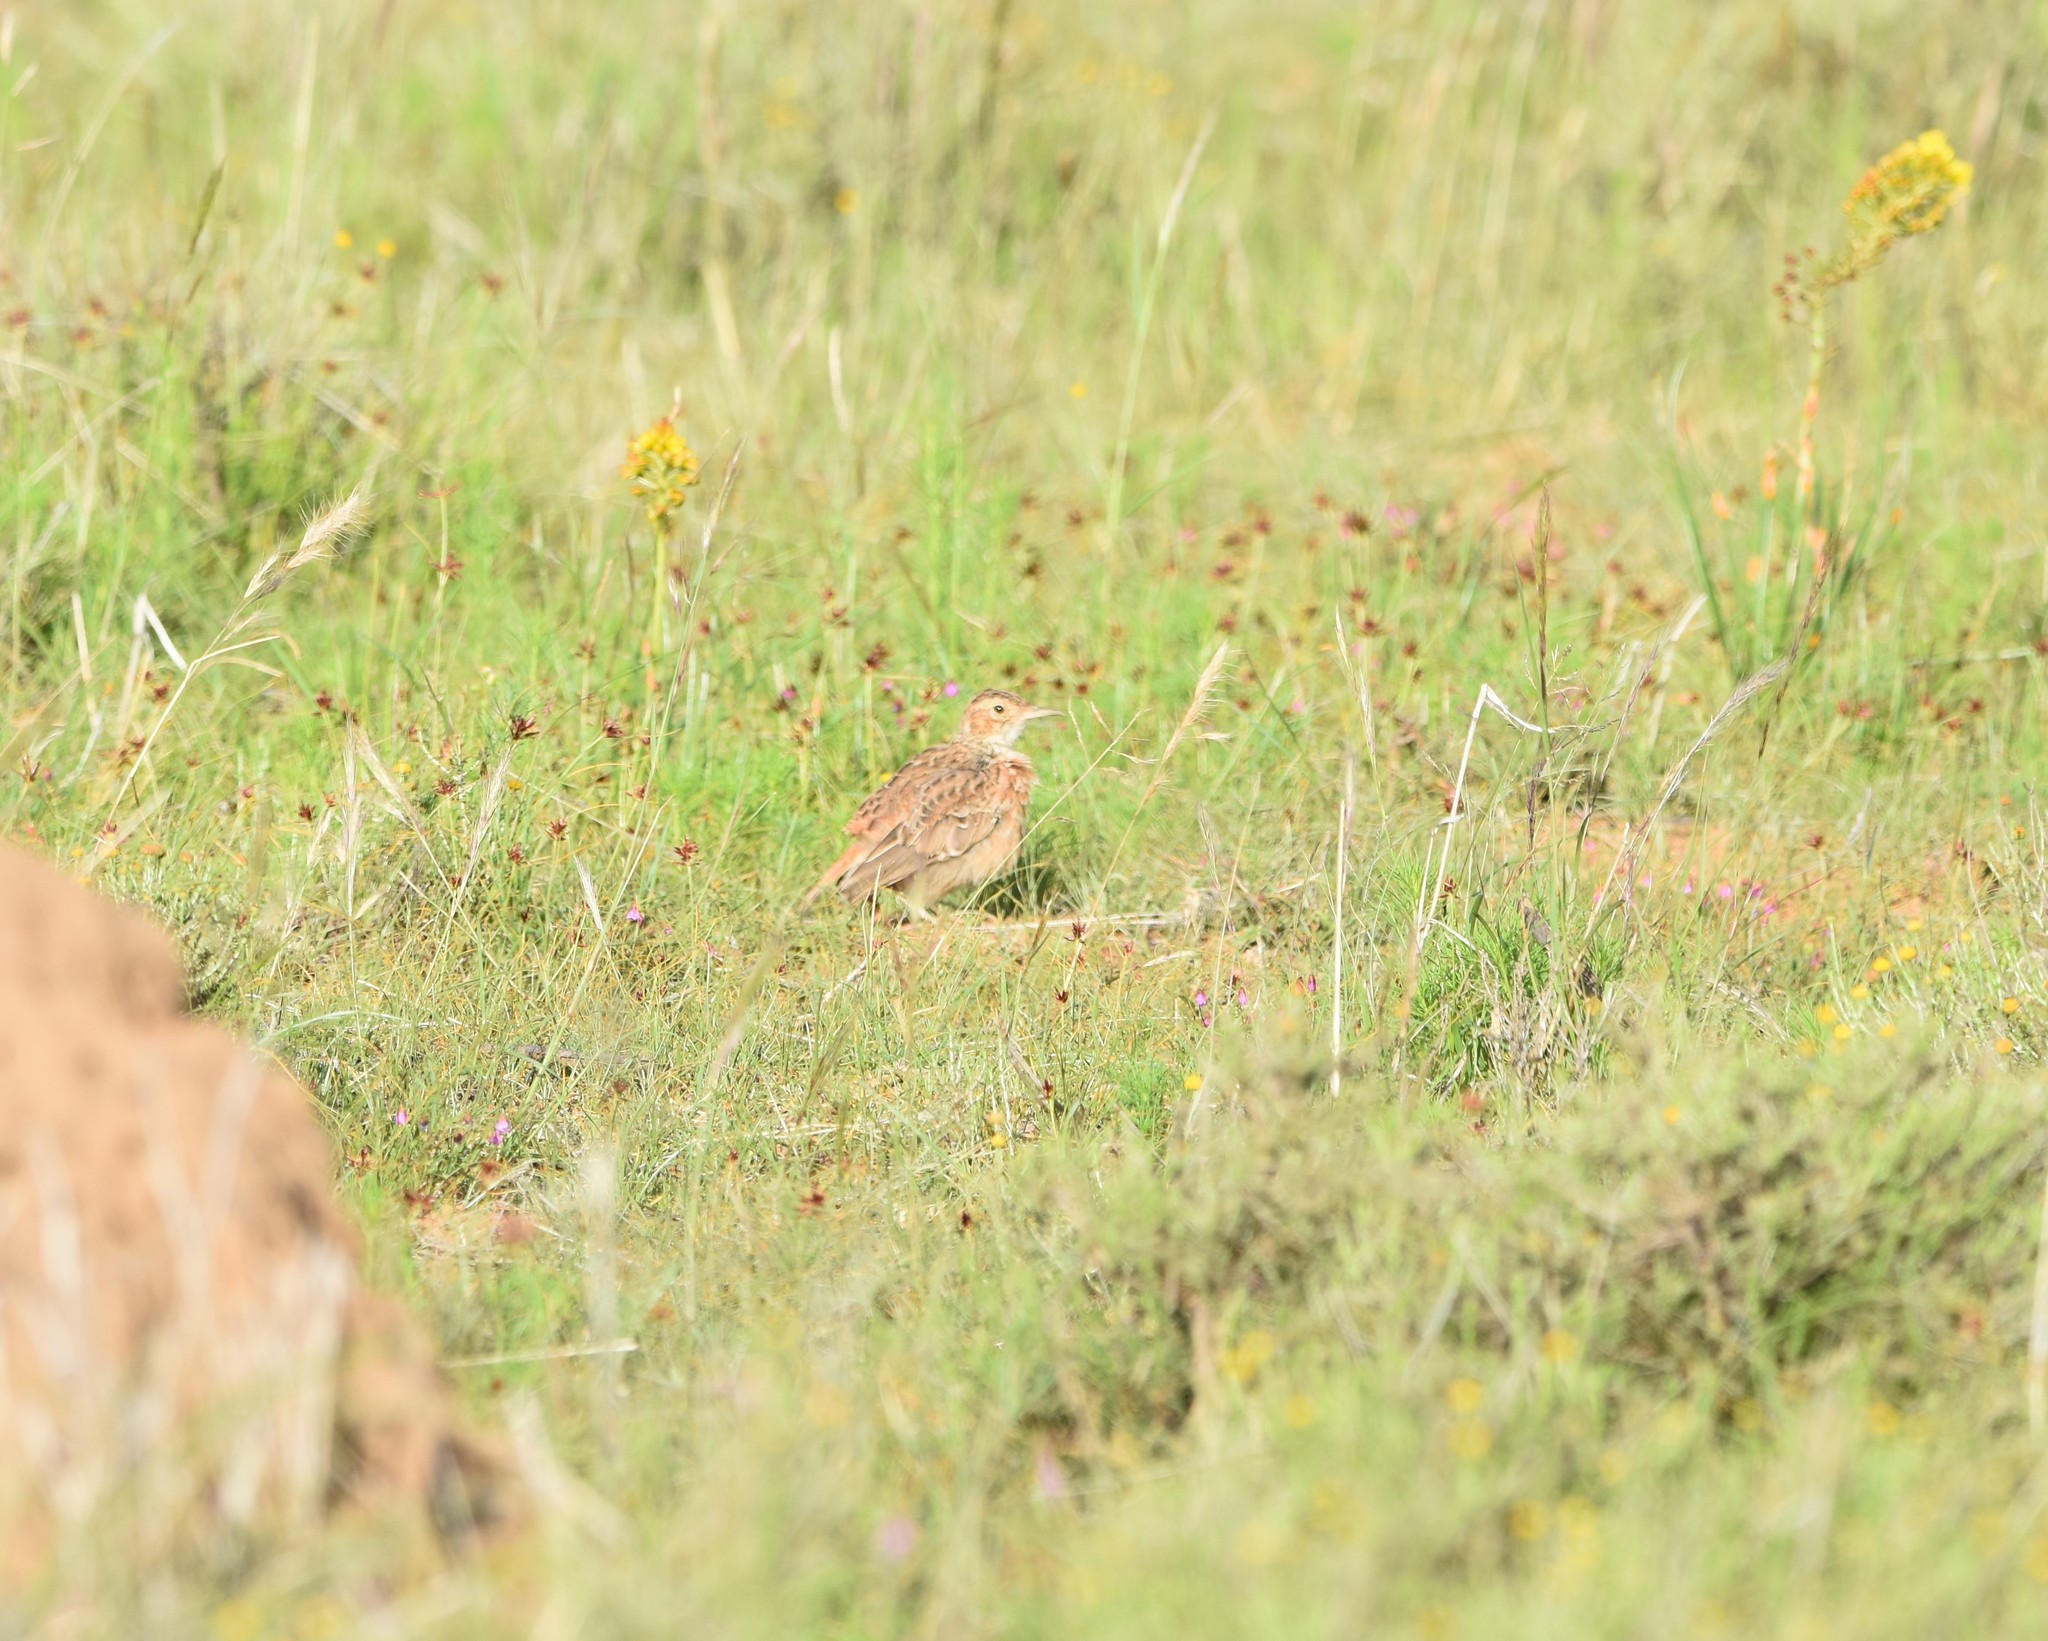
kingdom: Animalia
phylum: Chordata
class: Aves
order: Passeriformes
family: Alaudidae
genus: Chersomanes
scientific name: Chersomanes albofasciata
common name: Spike-heeled lark
